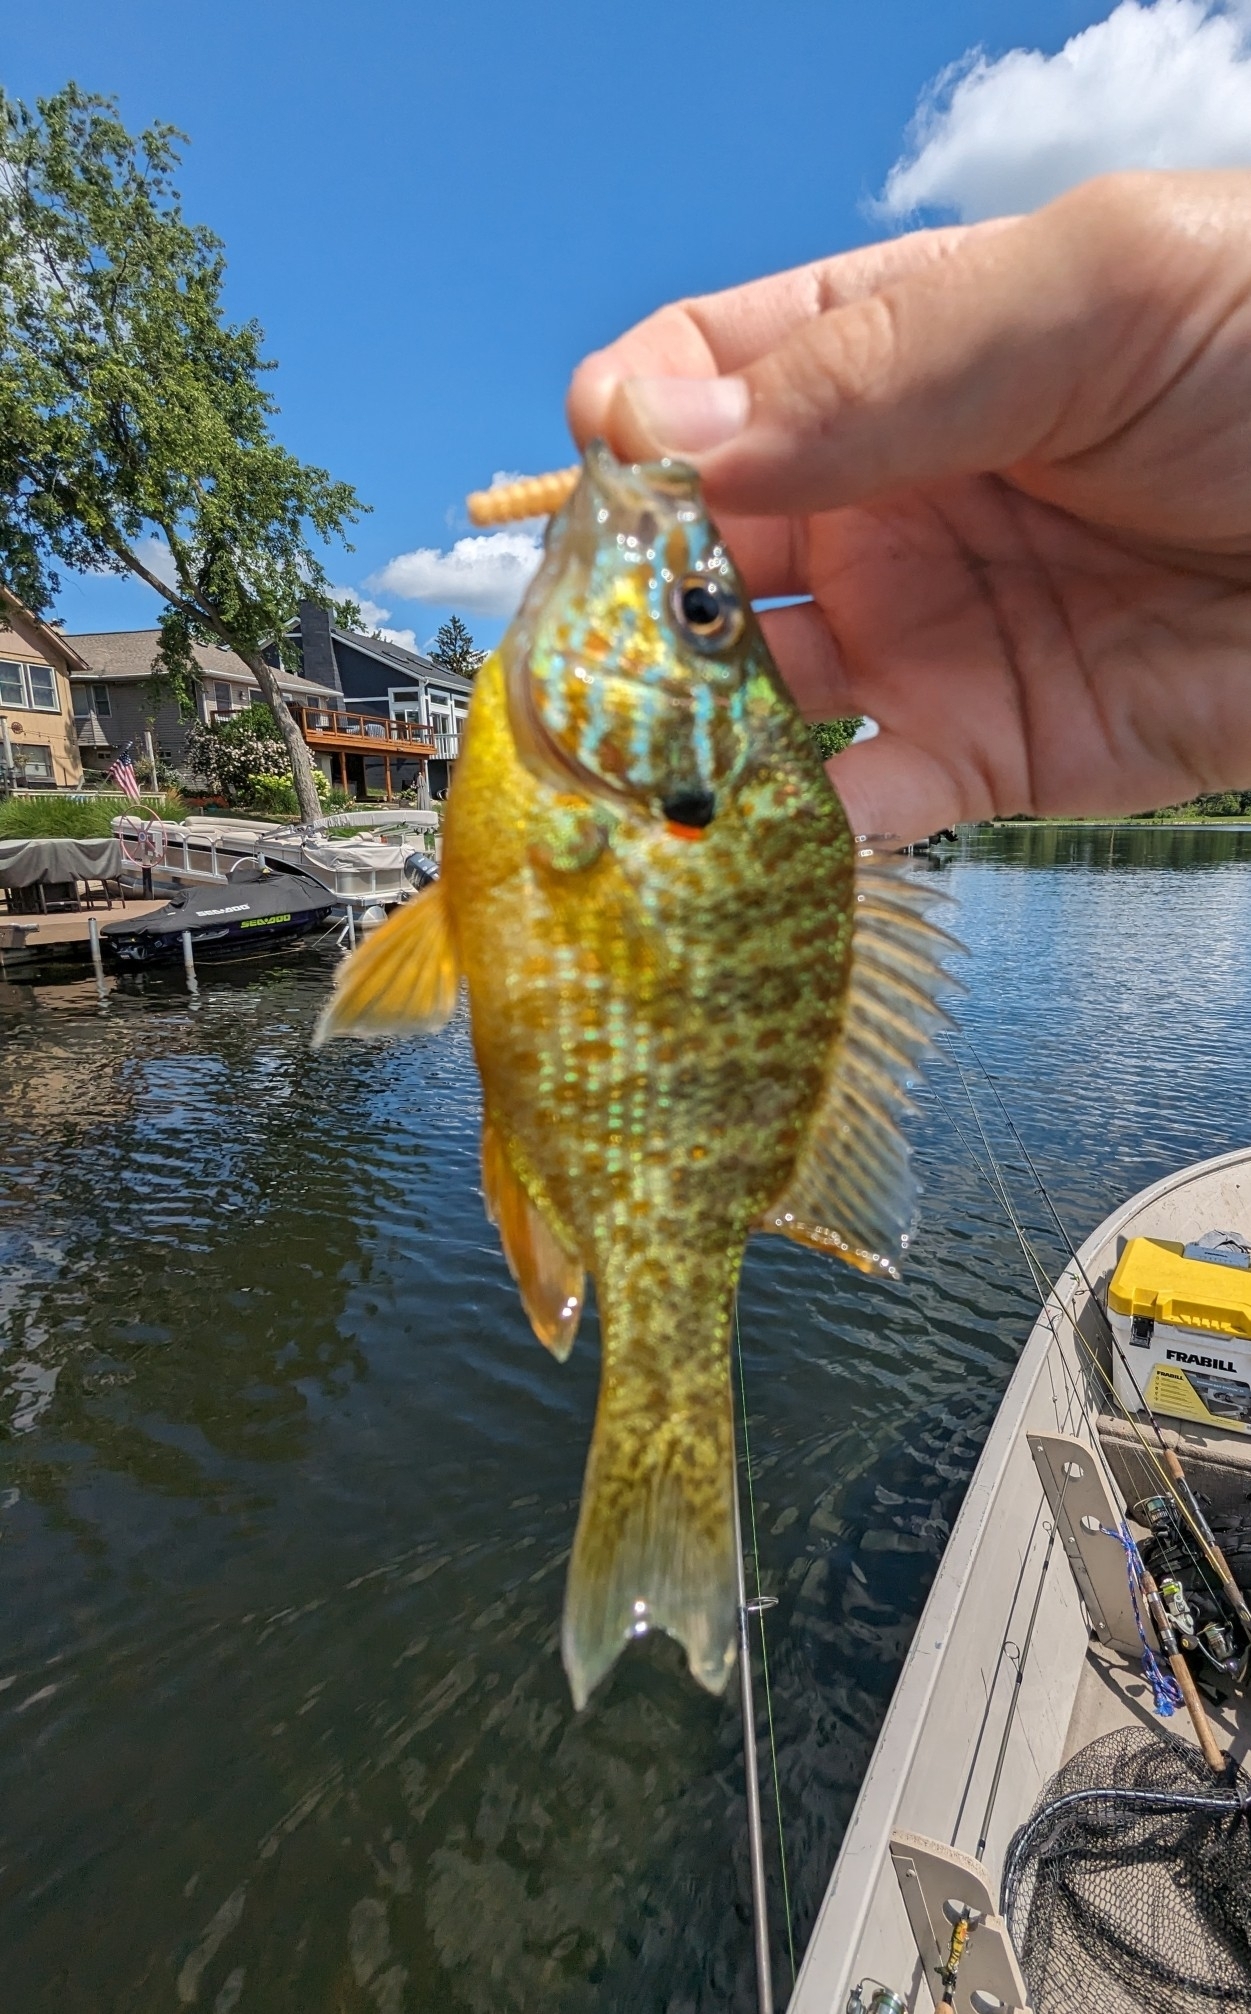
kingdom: Animalia
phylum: Chordata
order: Perciformes
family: Centrarchidae
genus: Lepomis
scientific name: Lepomis gibbosus
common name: Pumpkinseed
